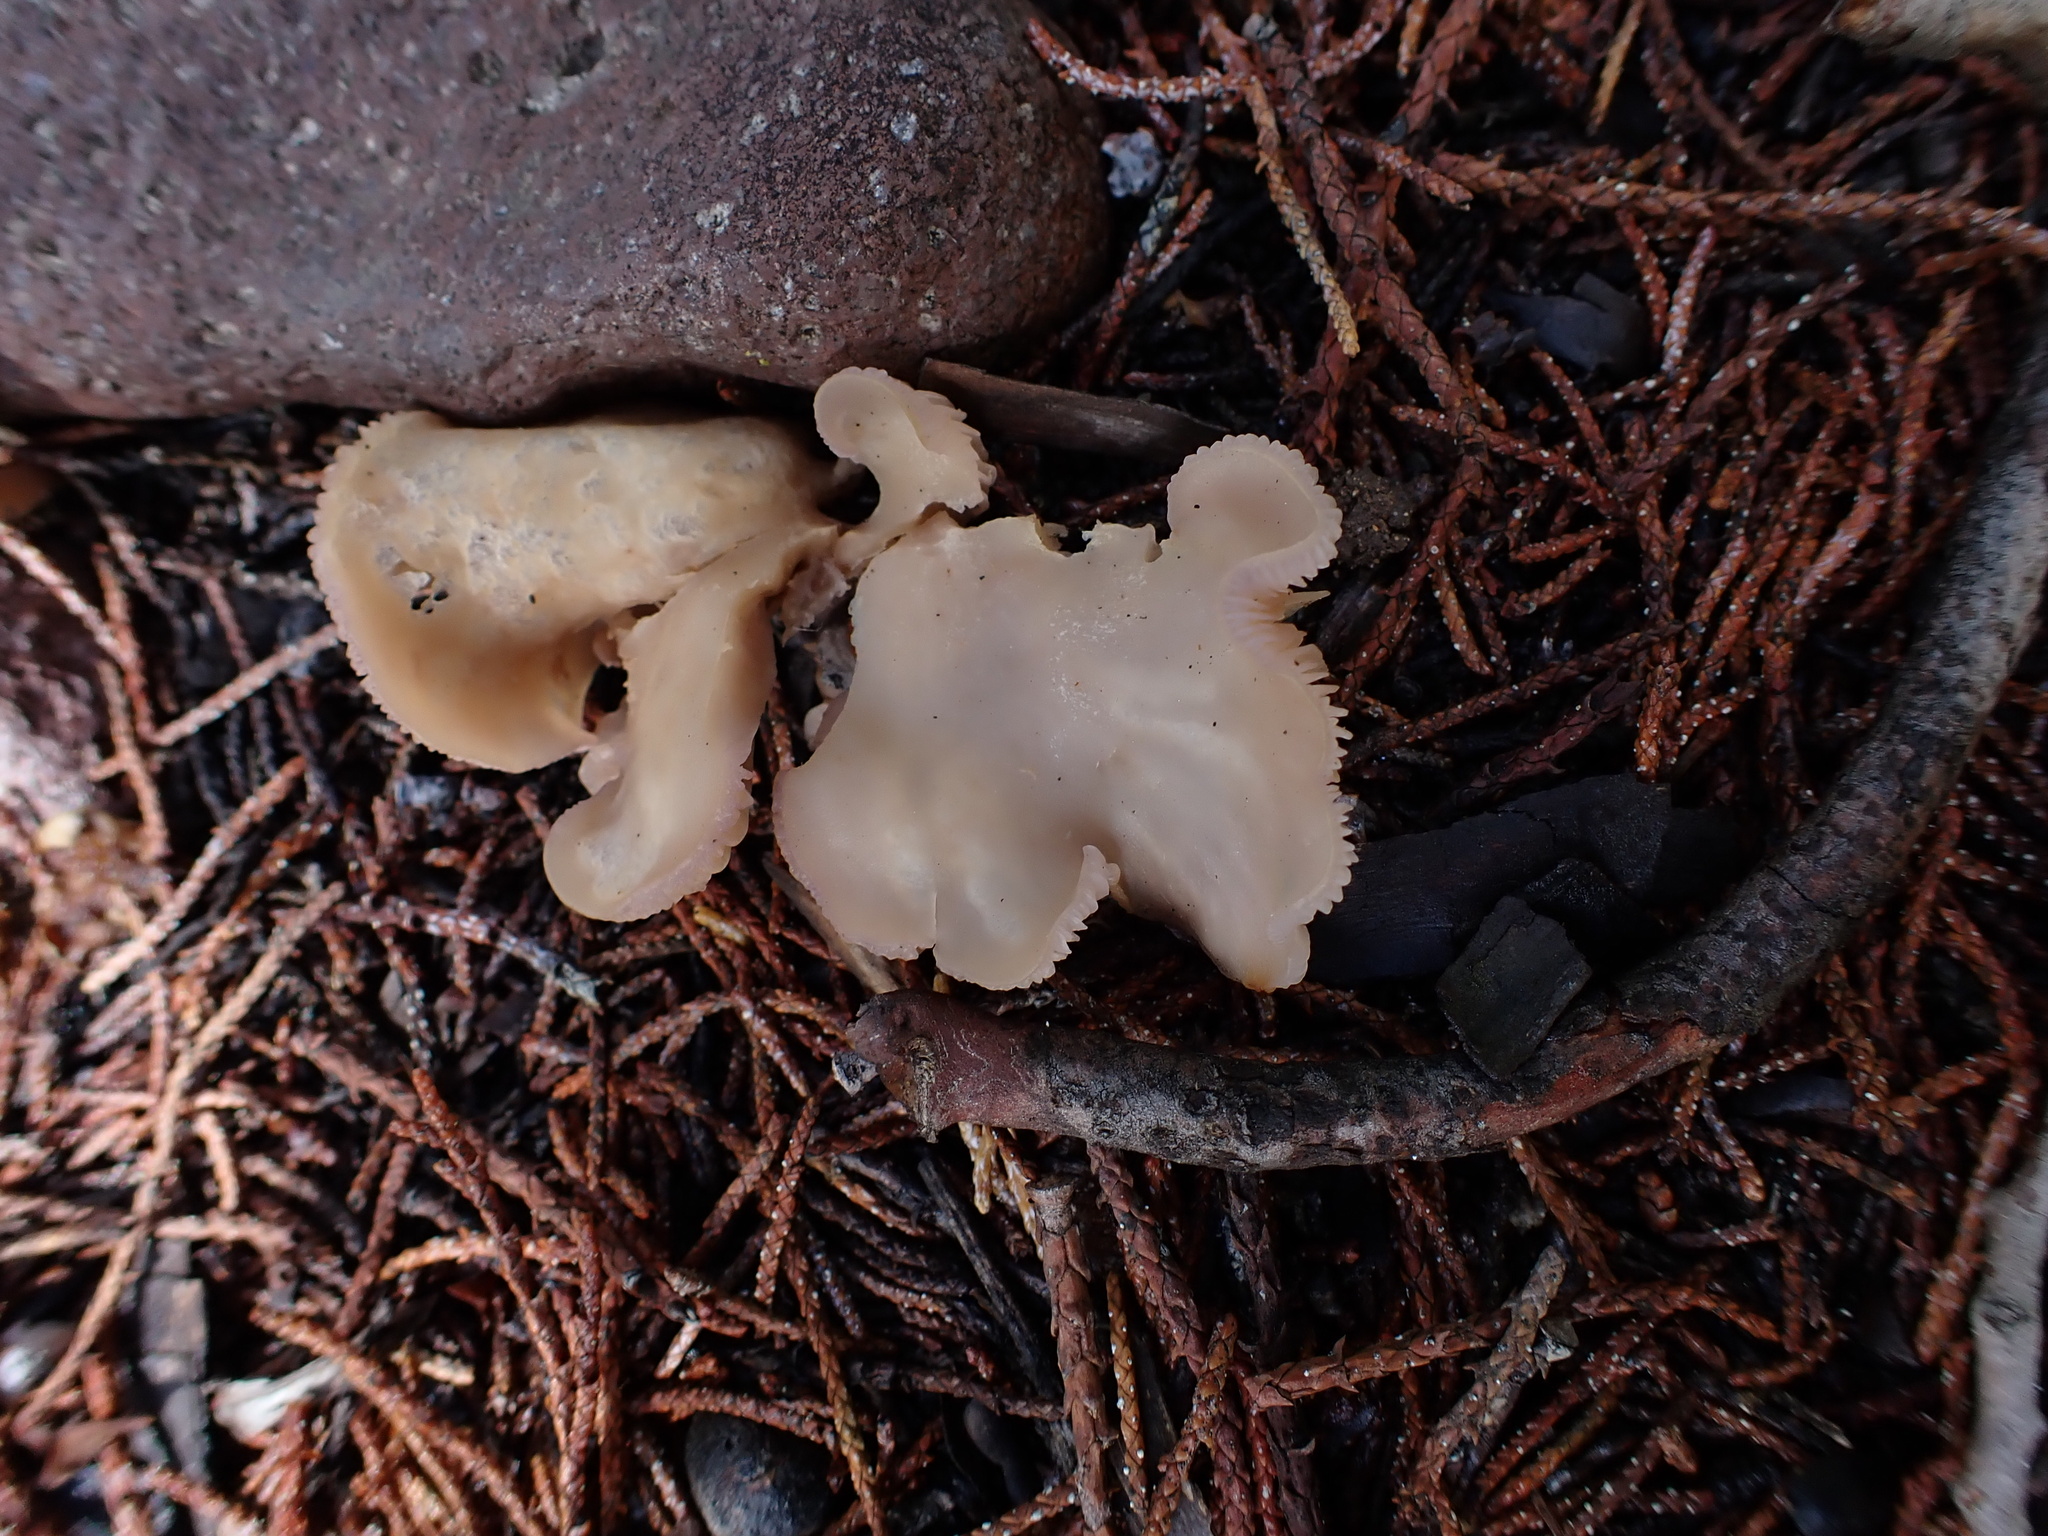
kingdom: Fungi
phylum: Basidiomycota
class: Agaricomycetes
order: Agaricales
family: Tricholomataceae
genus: Lepista
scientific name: Lepista tarda
